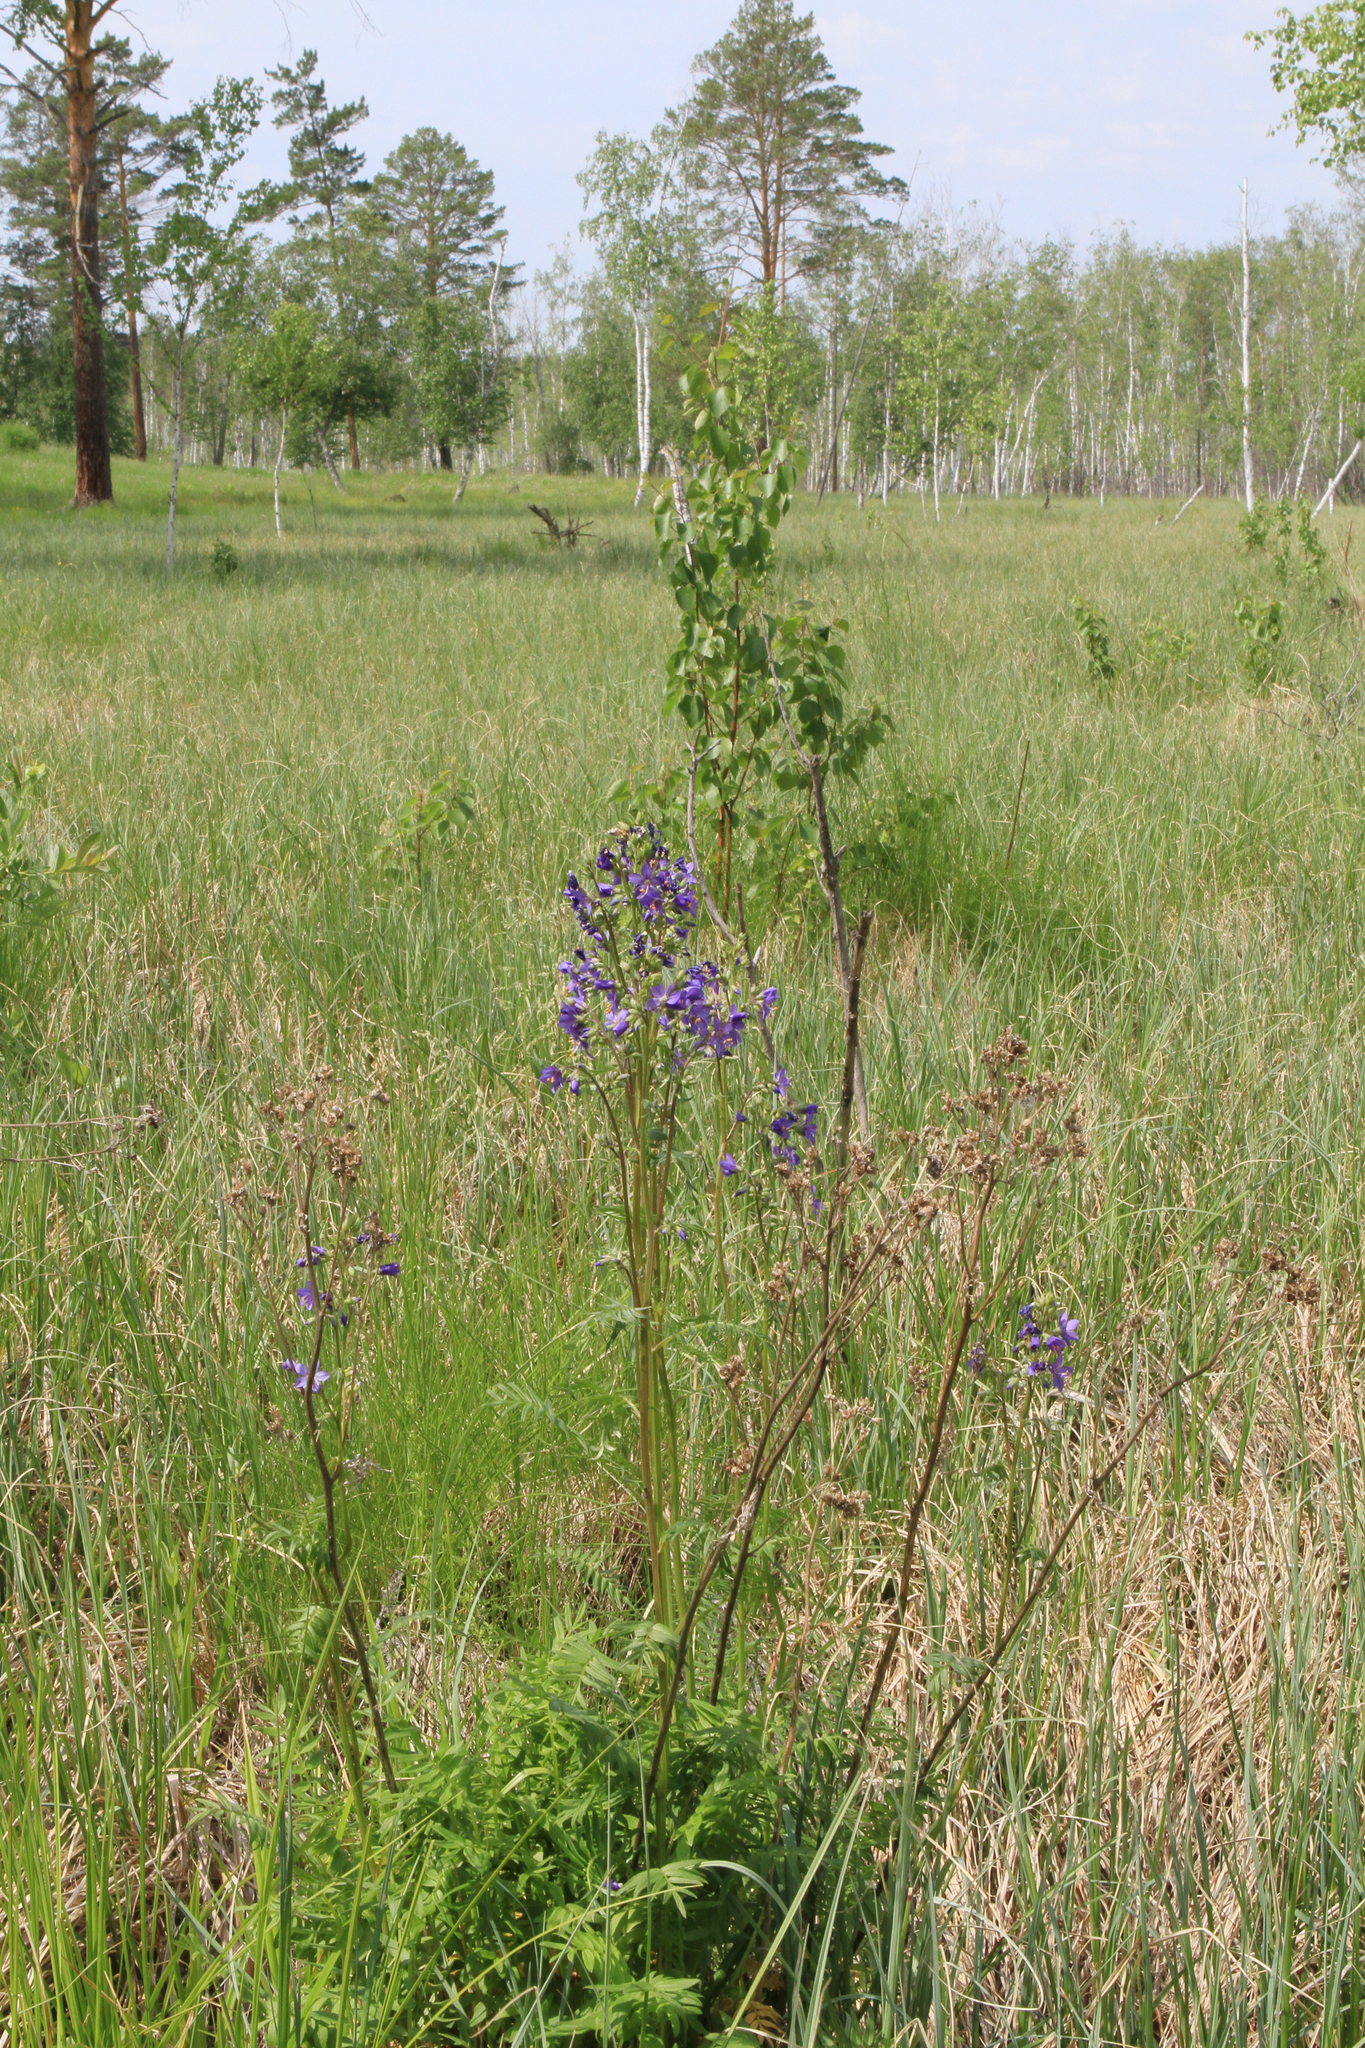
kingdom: Plantae
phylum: Tracheophyta
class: Magnoliopsida
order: Ericales
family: Polemoniaceae
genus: Polemonium
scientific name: Polemonium caeruleum
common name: Jacob's-ladder
